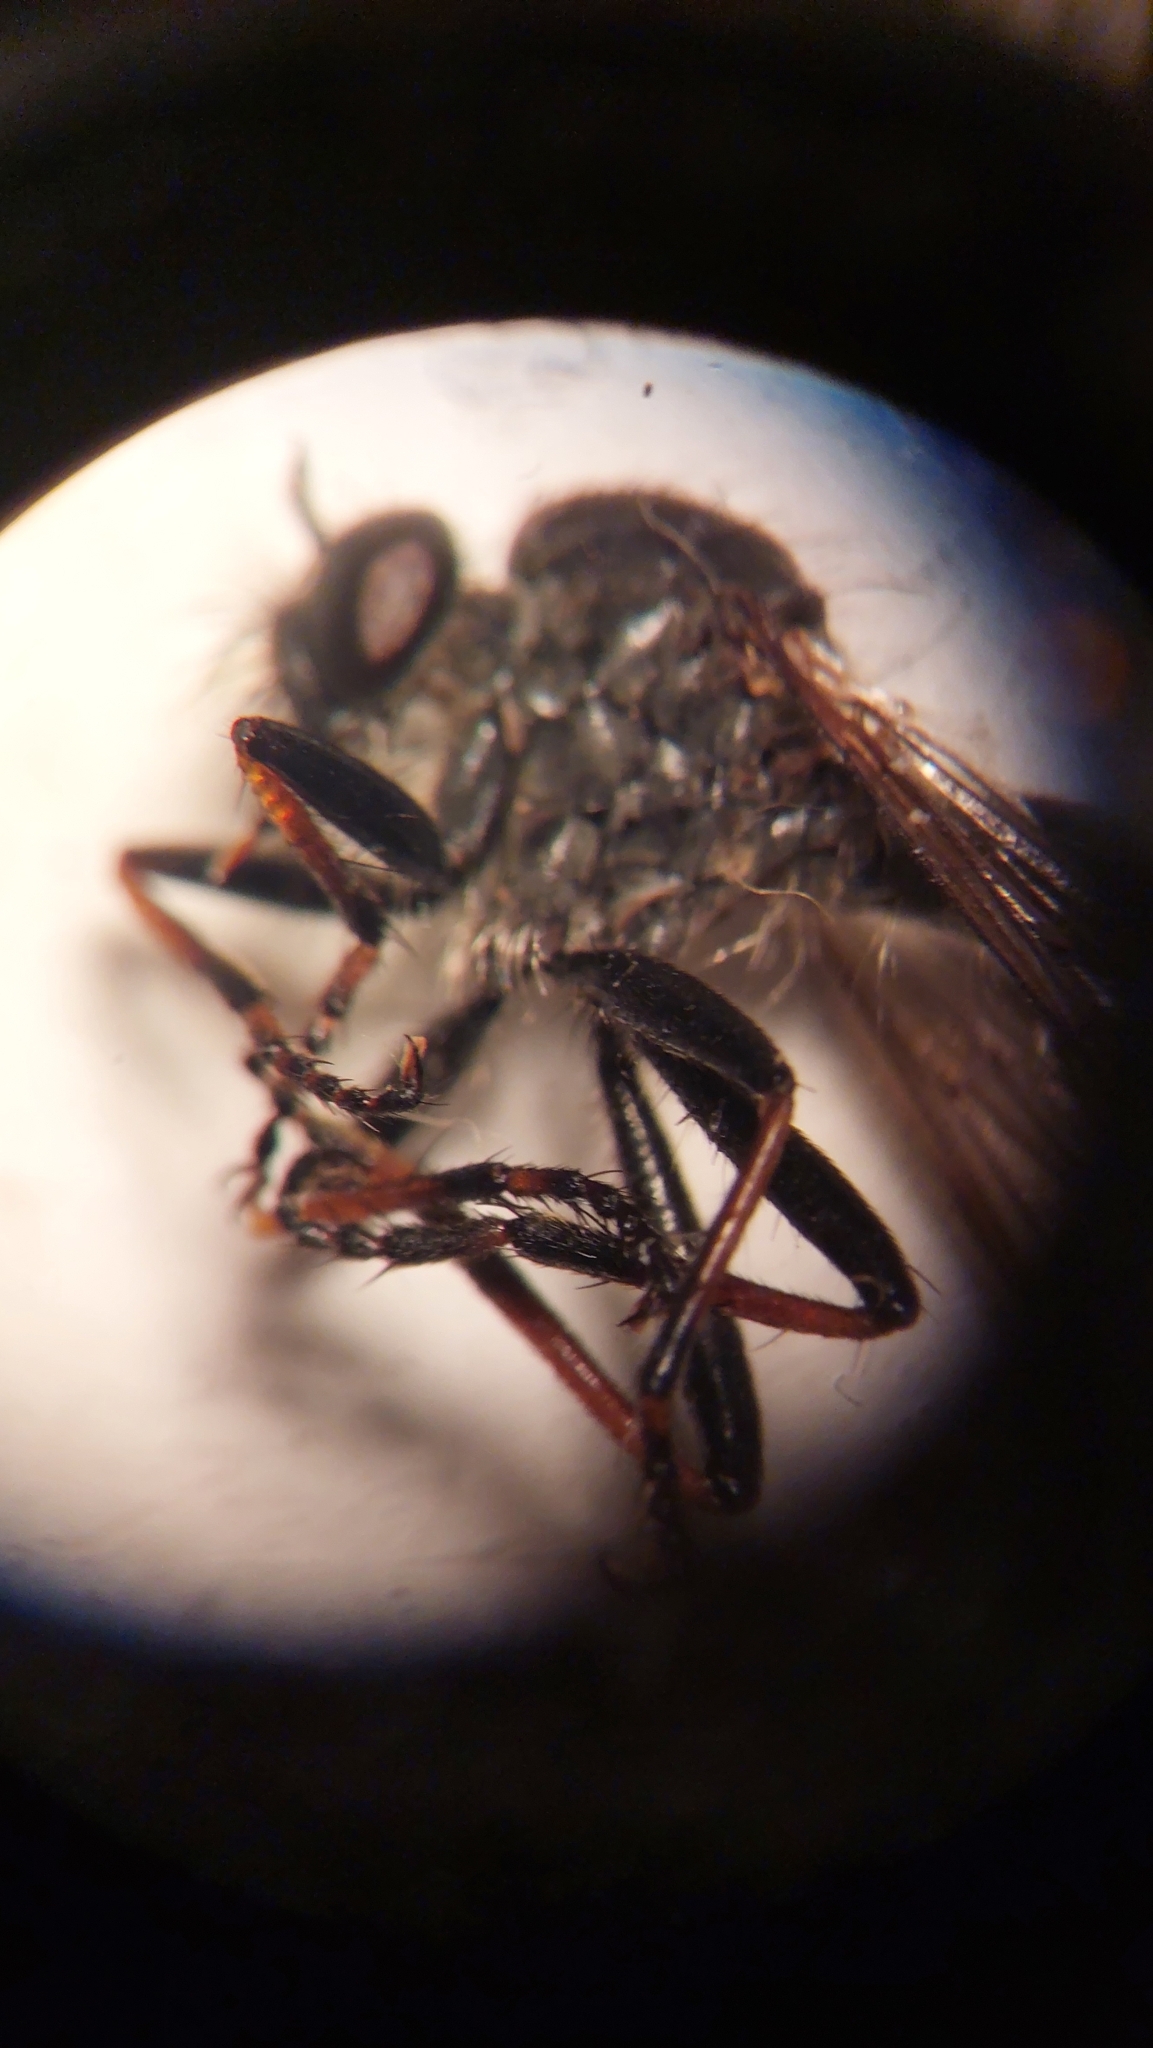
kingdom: Animalia
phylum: Arthropoda
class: Insecta
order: Diptera
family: Asilidae
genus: Neoitamus
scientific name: Neoitamus socius
